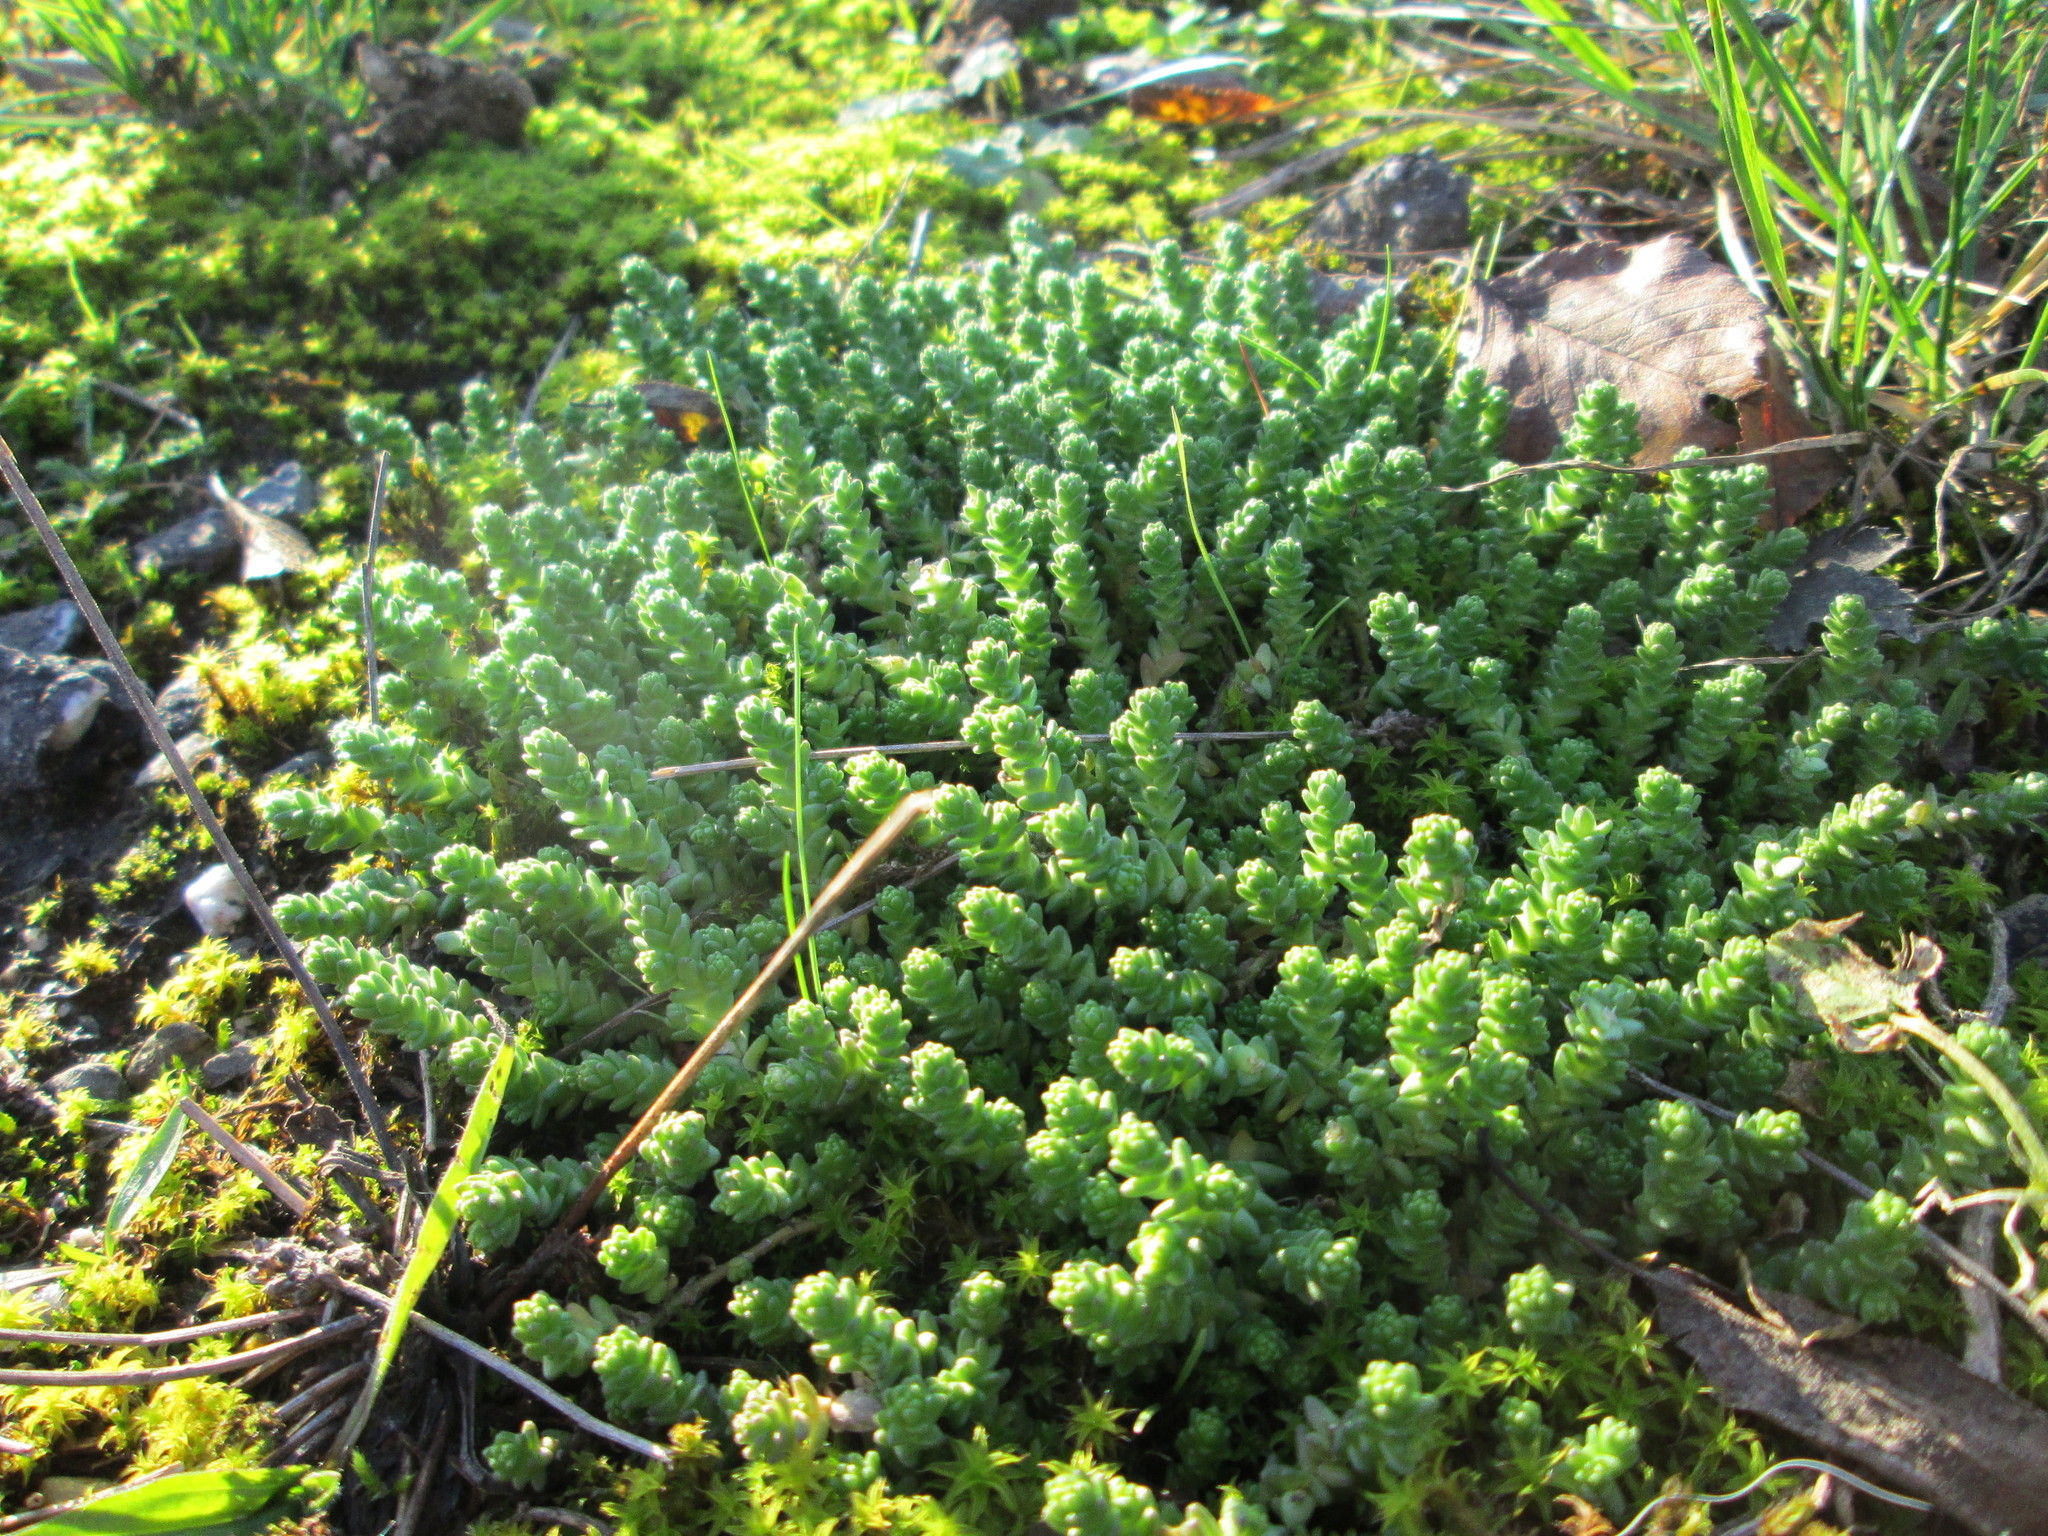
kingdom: Plantae
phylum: Tracheophyta
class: Magnoliopsida
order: Saxifragales
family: Crassulaceae
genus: Sedum
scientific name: Sedum acre
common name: Biting stonecrop
